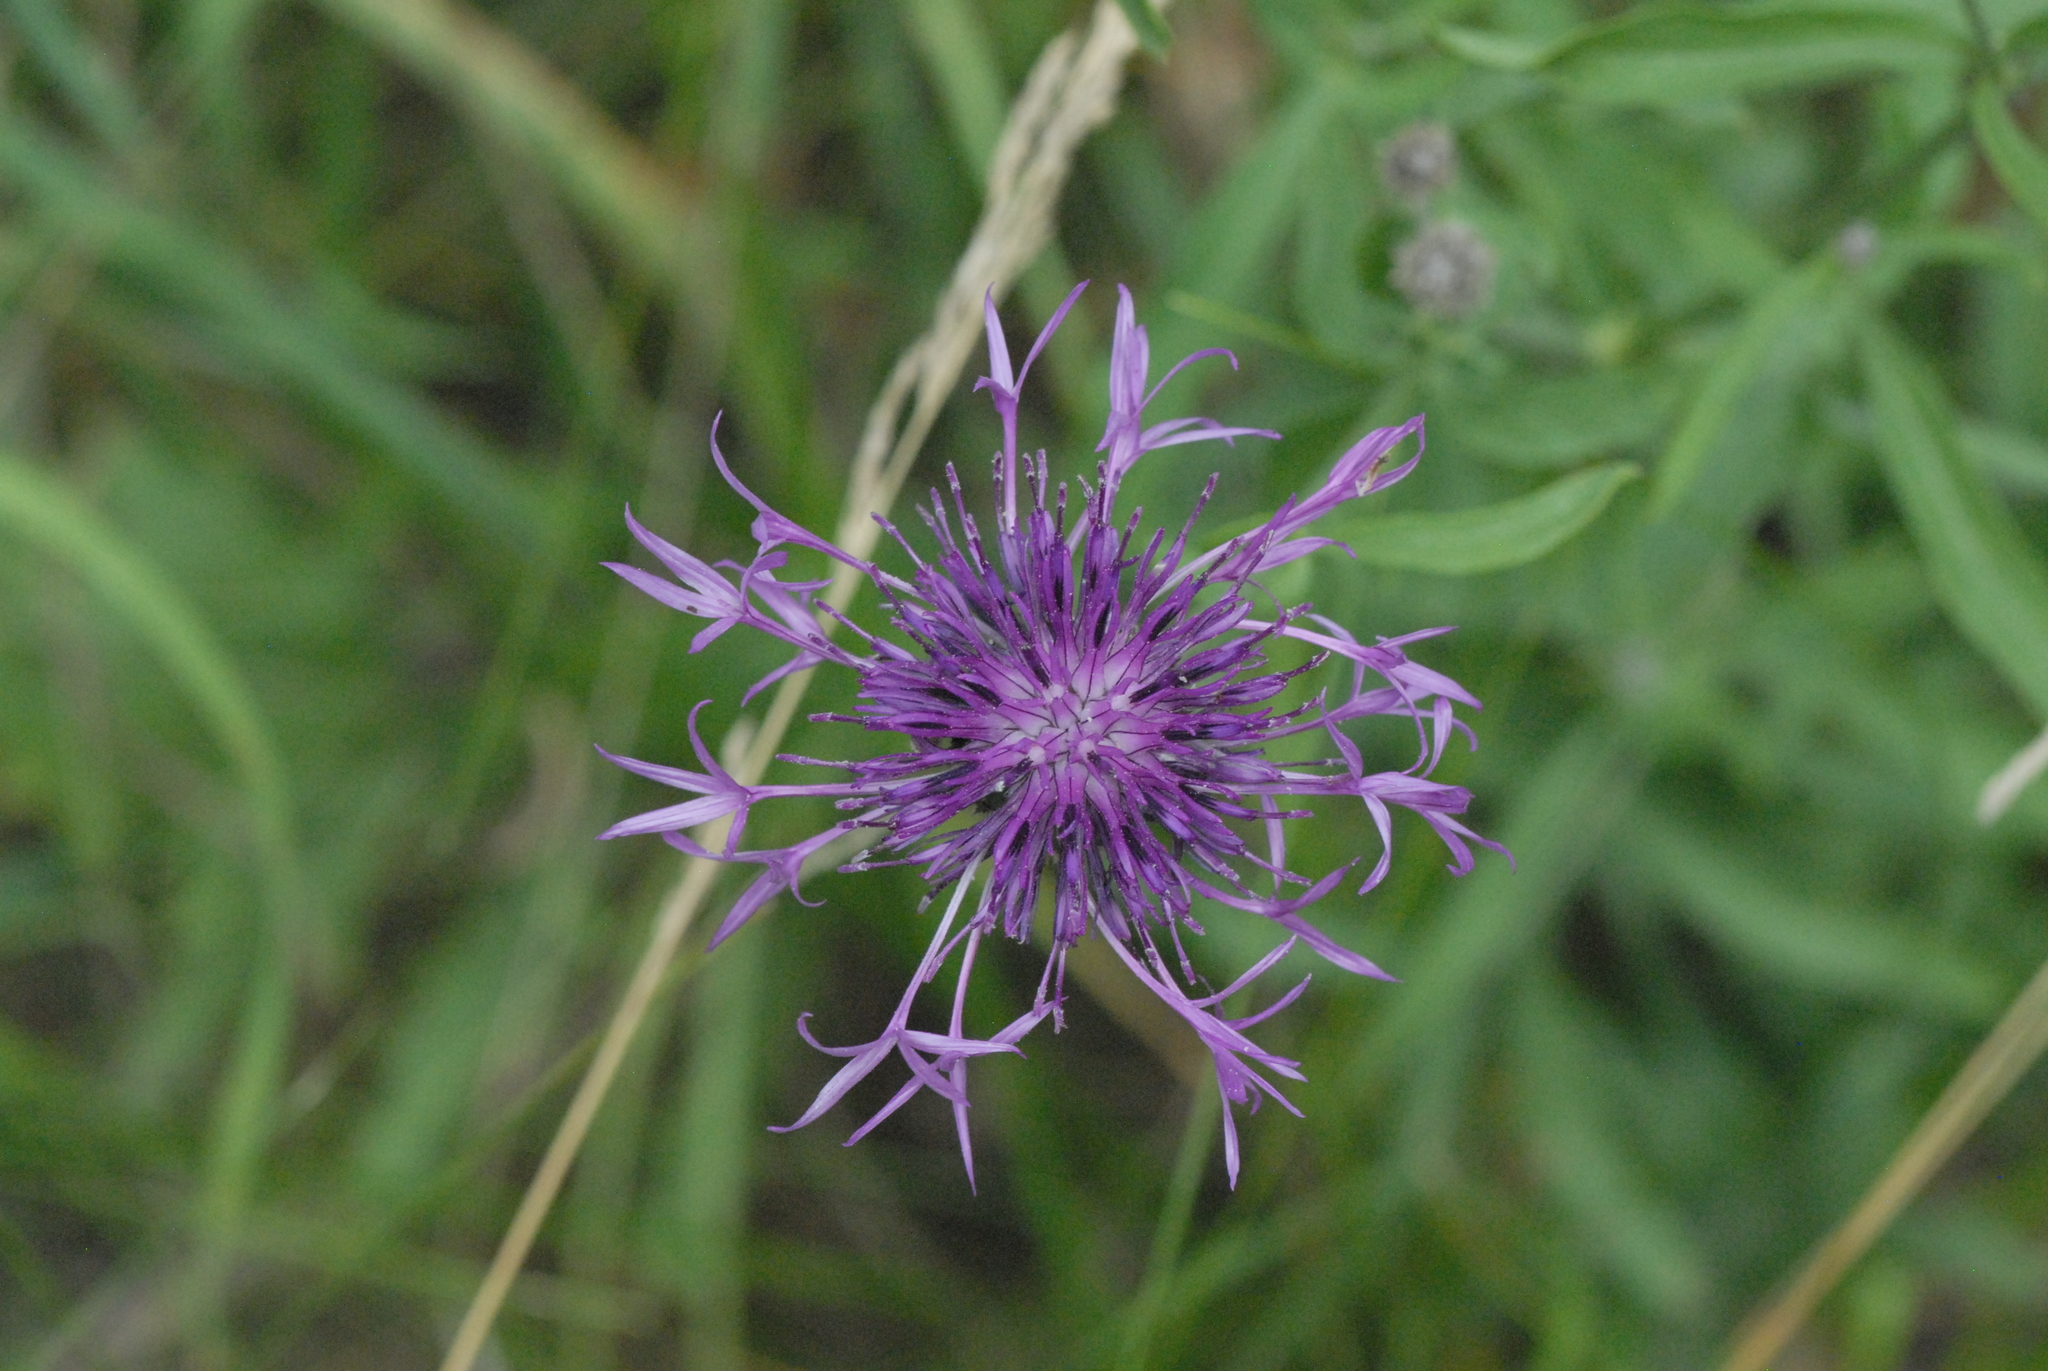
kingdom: Plantae
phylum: Tracheophyta
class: Magnoliopsida
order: Asterales
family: Asteraceae
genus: Centaurea
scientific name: Centaurea scabiosa
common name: Greater knapweed
